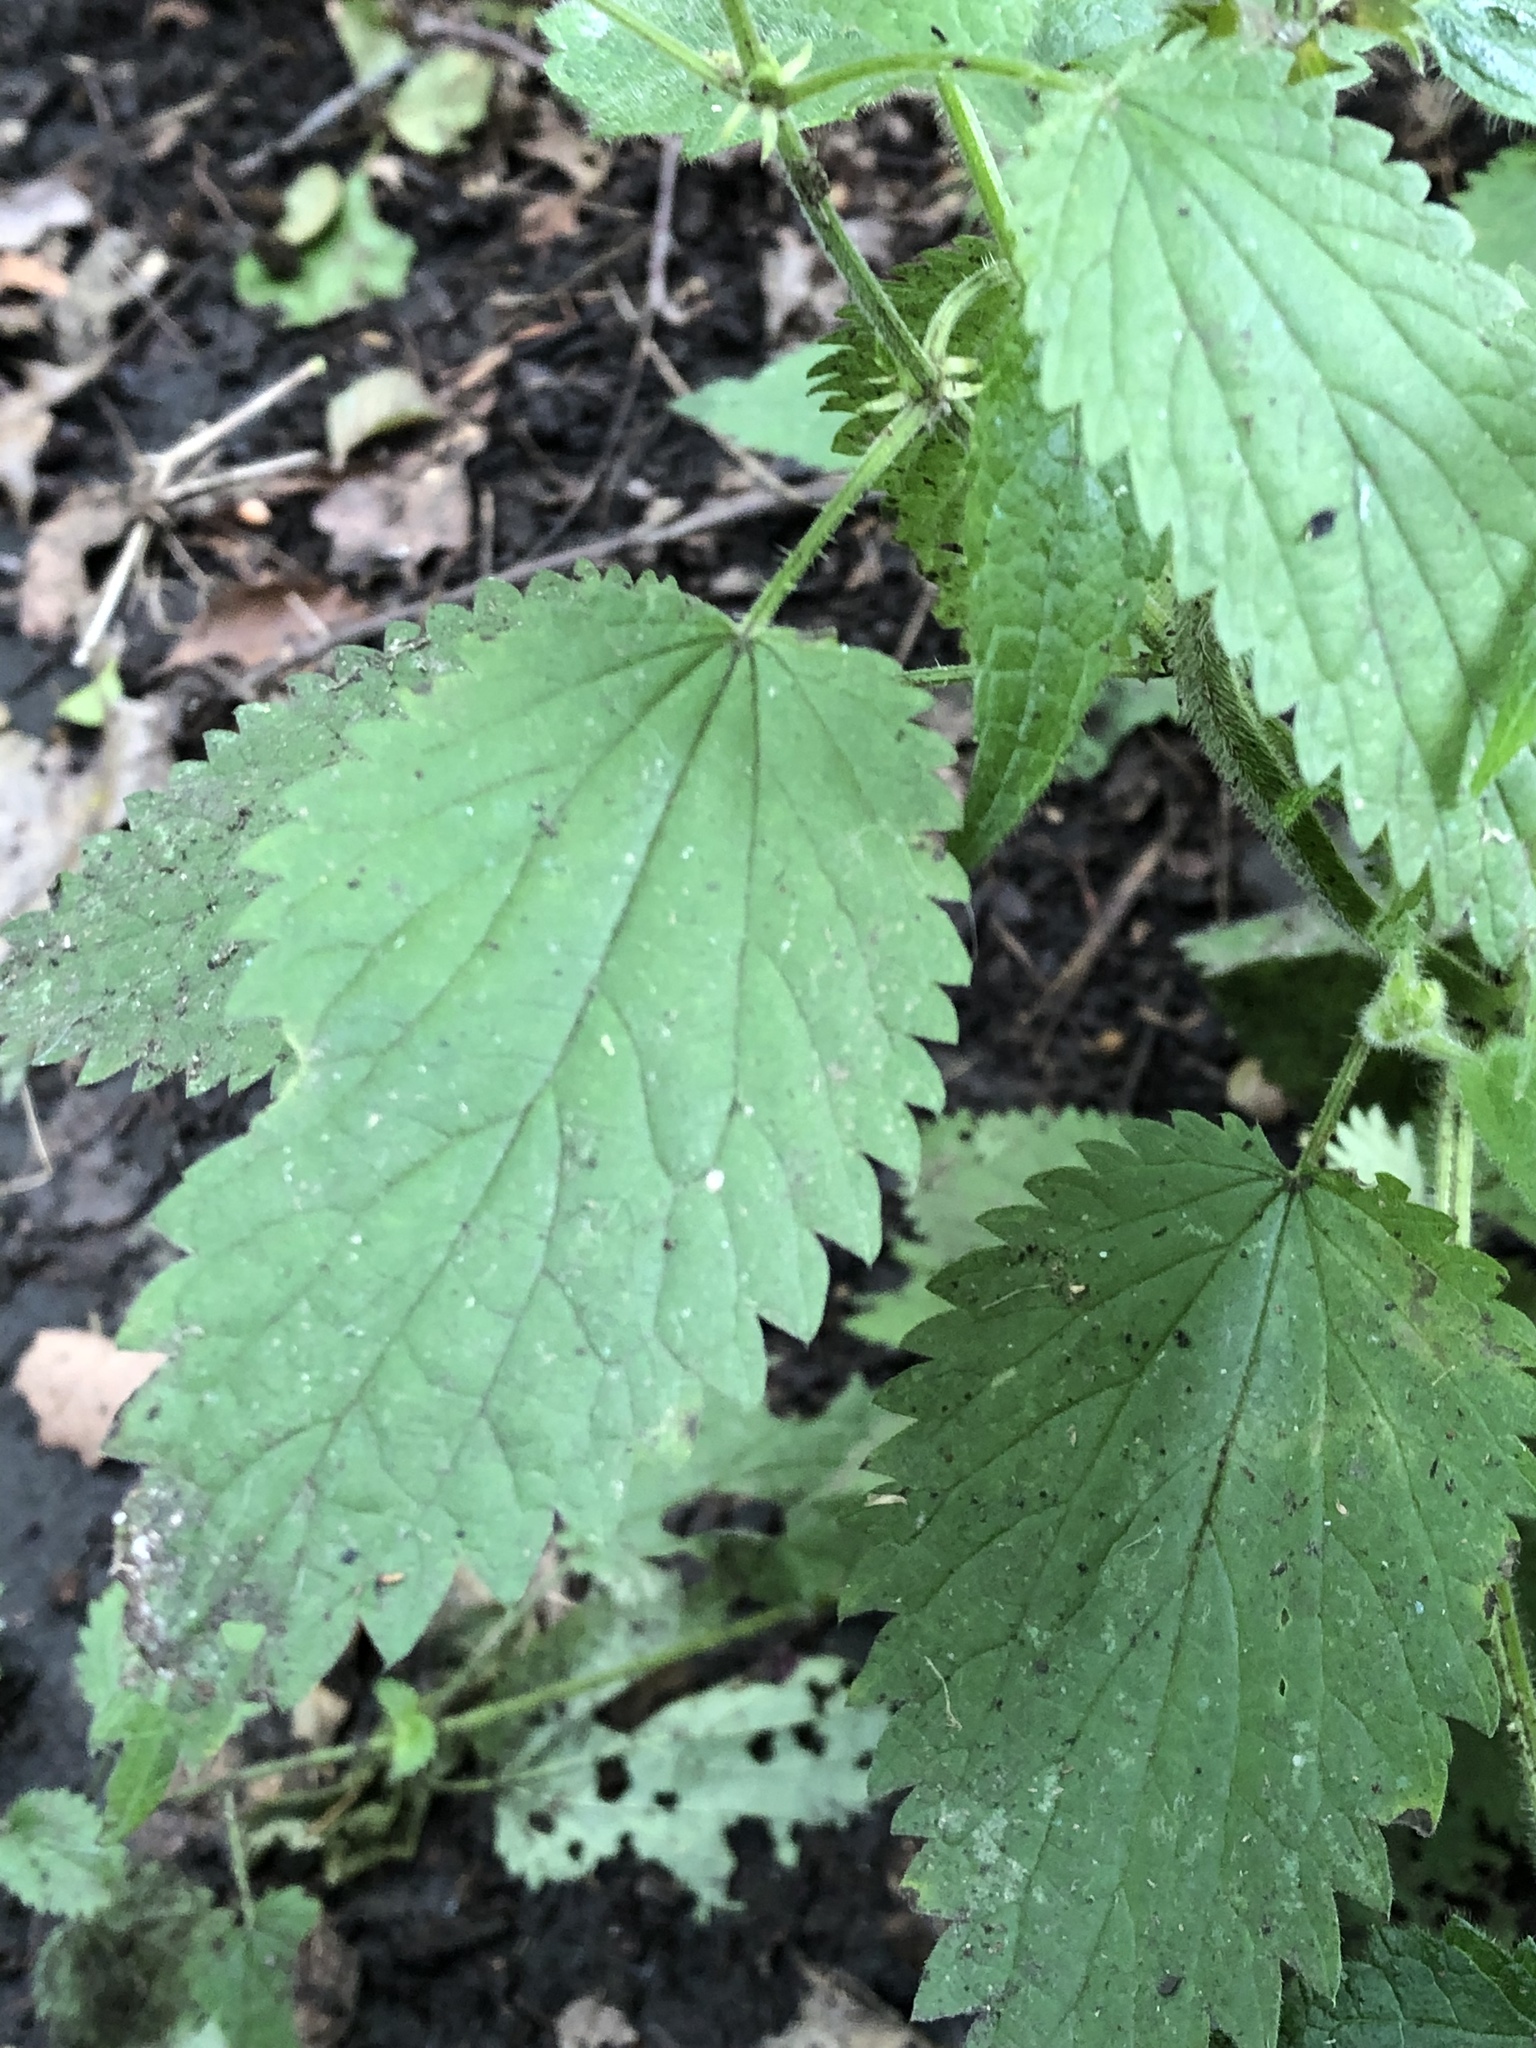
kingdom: Plantae
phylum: Tracheophyta
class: Magnoliopsida
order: Lamiales
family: Lamiaceae
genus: Stachys
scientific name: Stachys sylvatica
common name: Hedge woundwort
